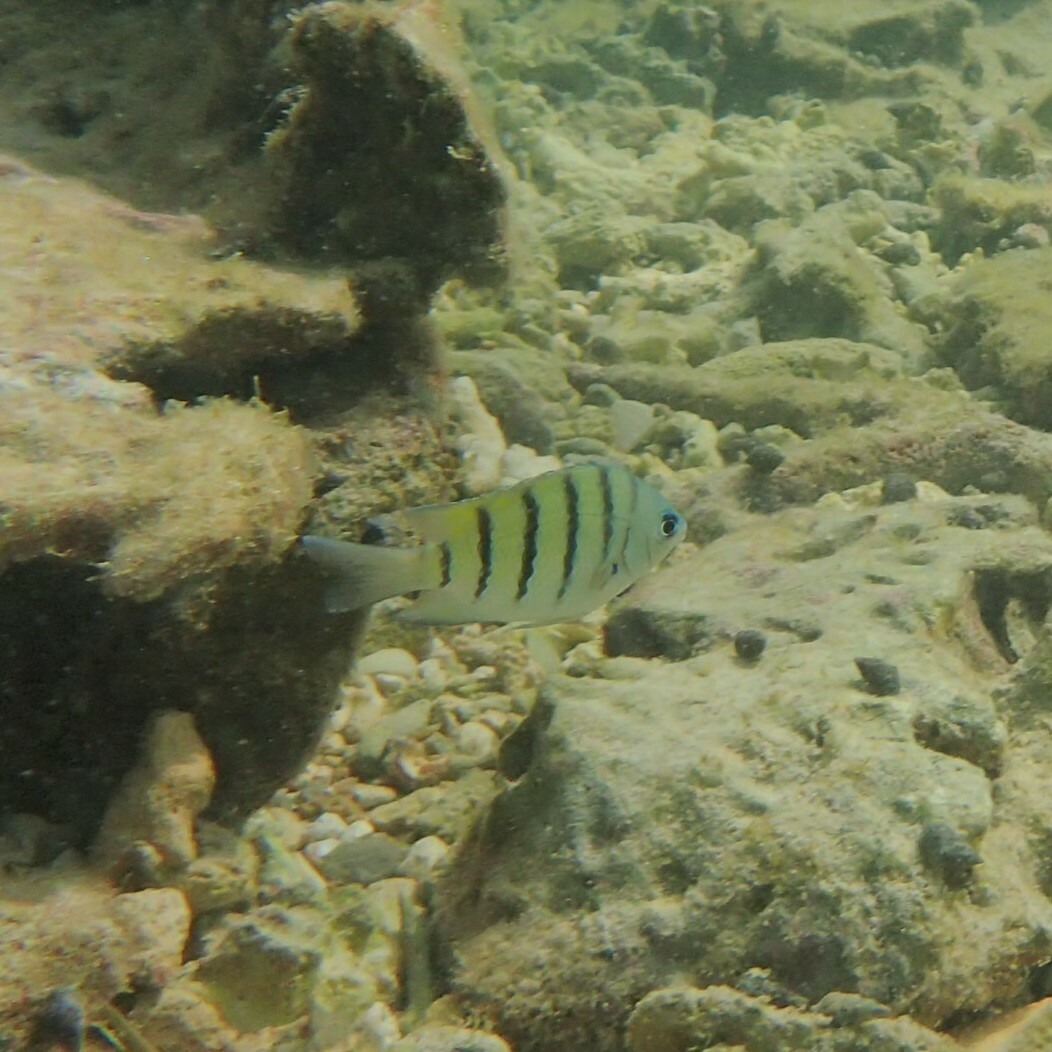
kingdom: Animalia
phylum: Chordata
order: Perciformes
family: Pomacentridae
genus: Abudefduf
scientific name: Abudefduf bengalensis
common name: Bengal sergeant
